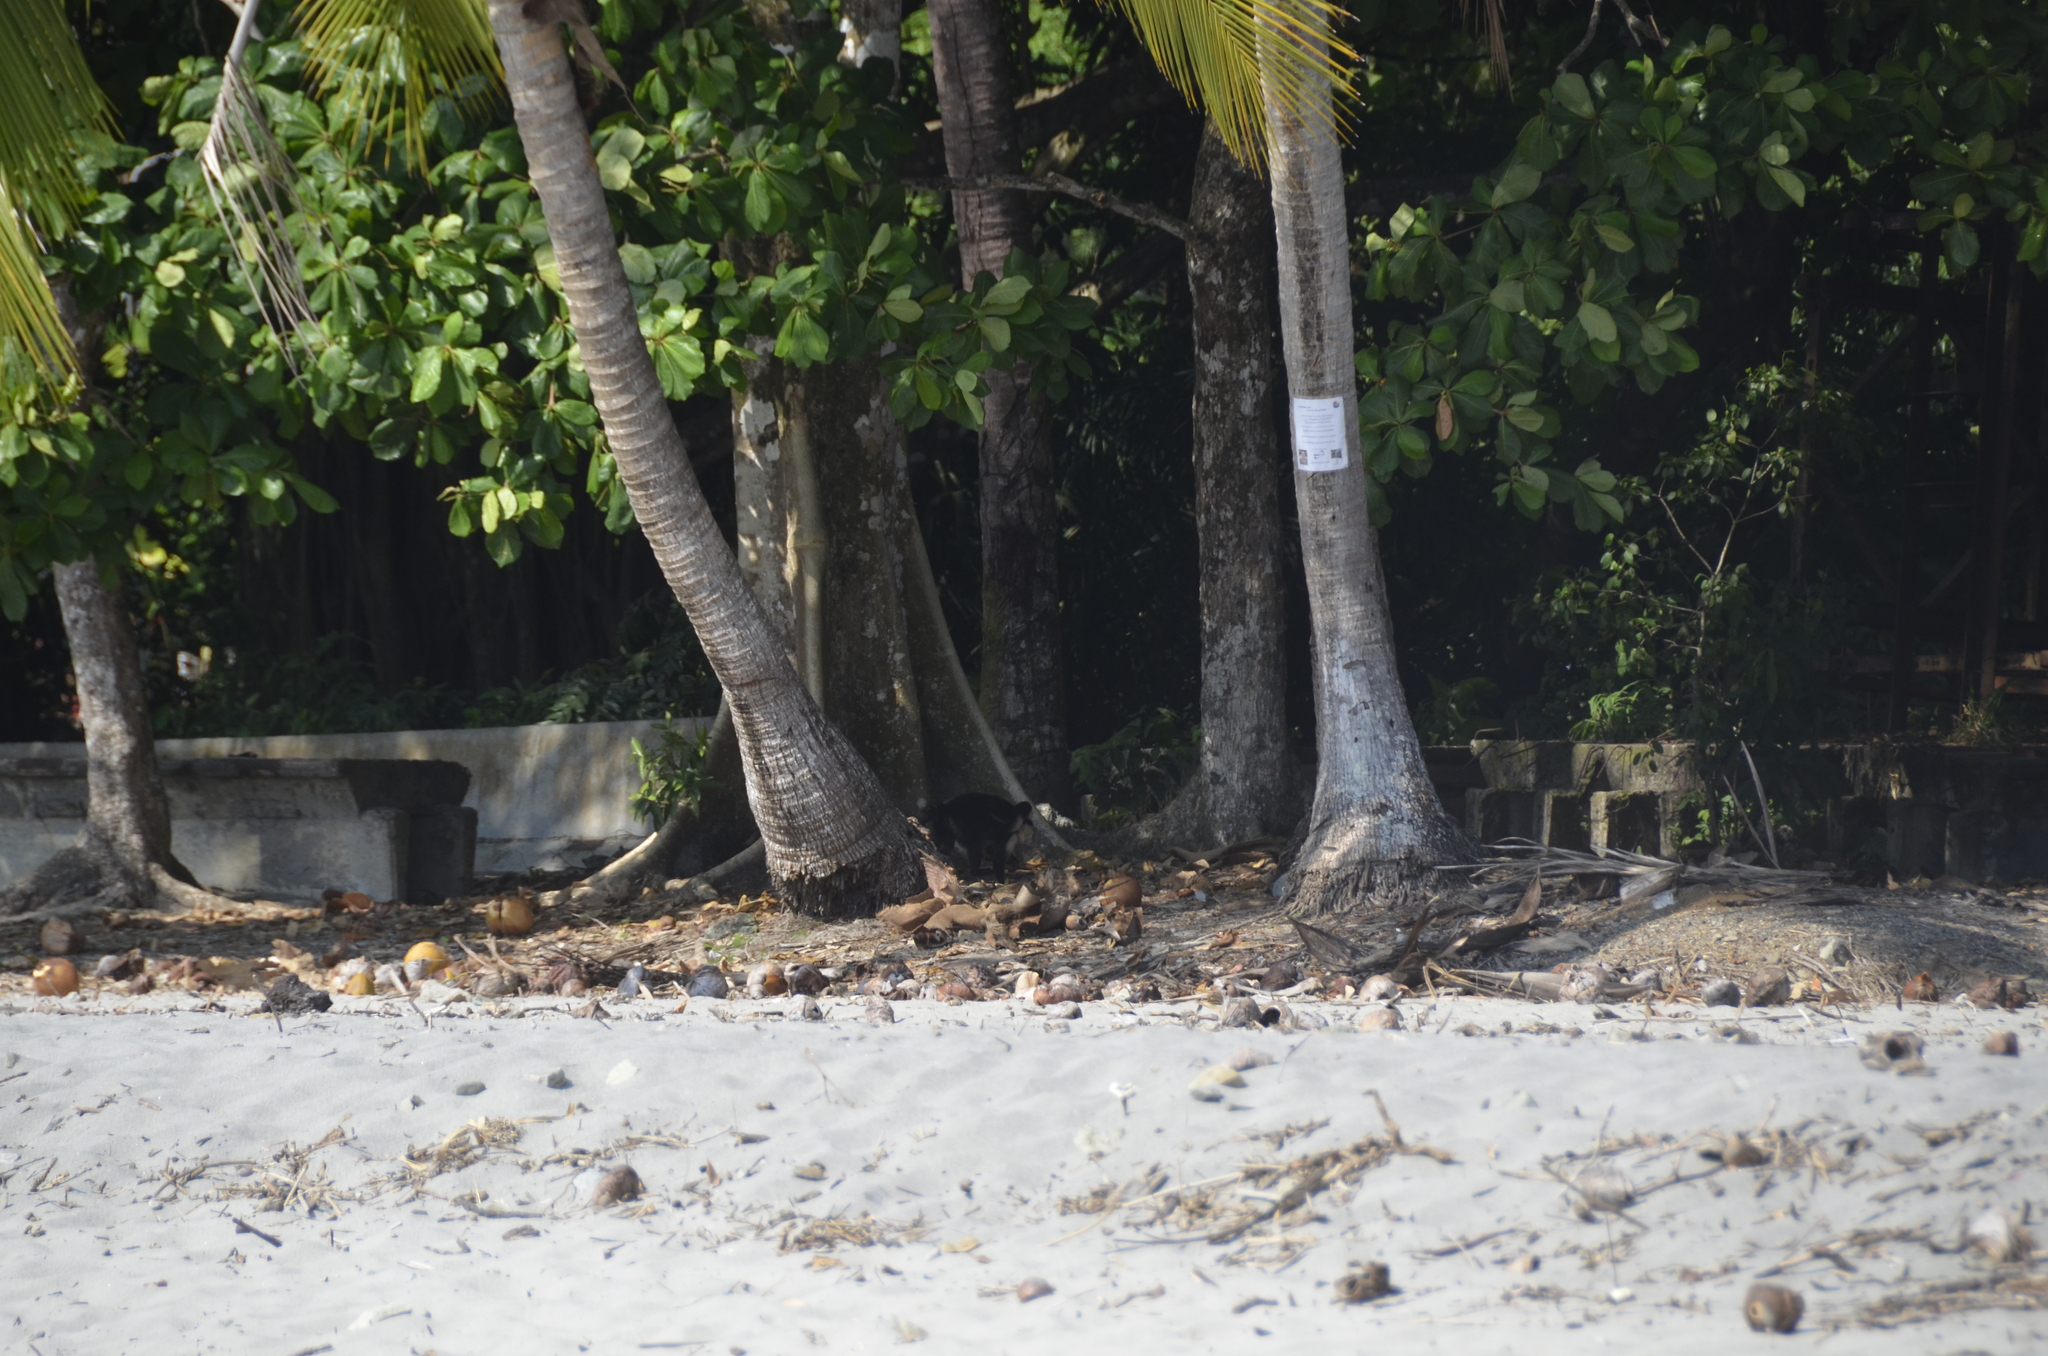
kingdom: Animalia
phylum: Chordata
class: Mammalia
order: Primates
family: Cebidae
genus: Cebus
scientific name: Cebus imitator
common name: Panamanian white-faced capuchin
